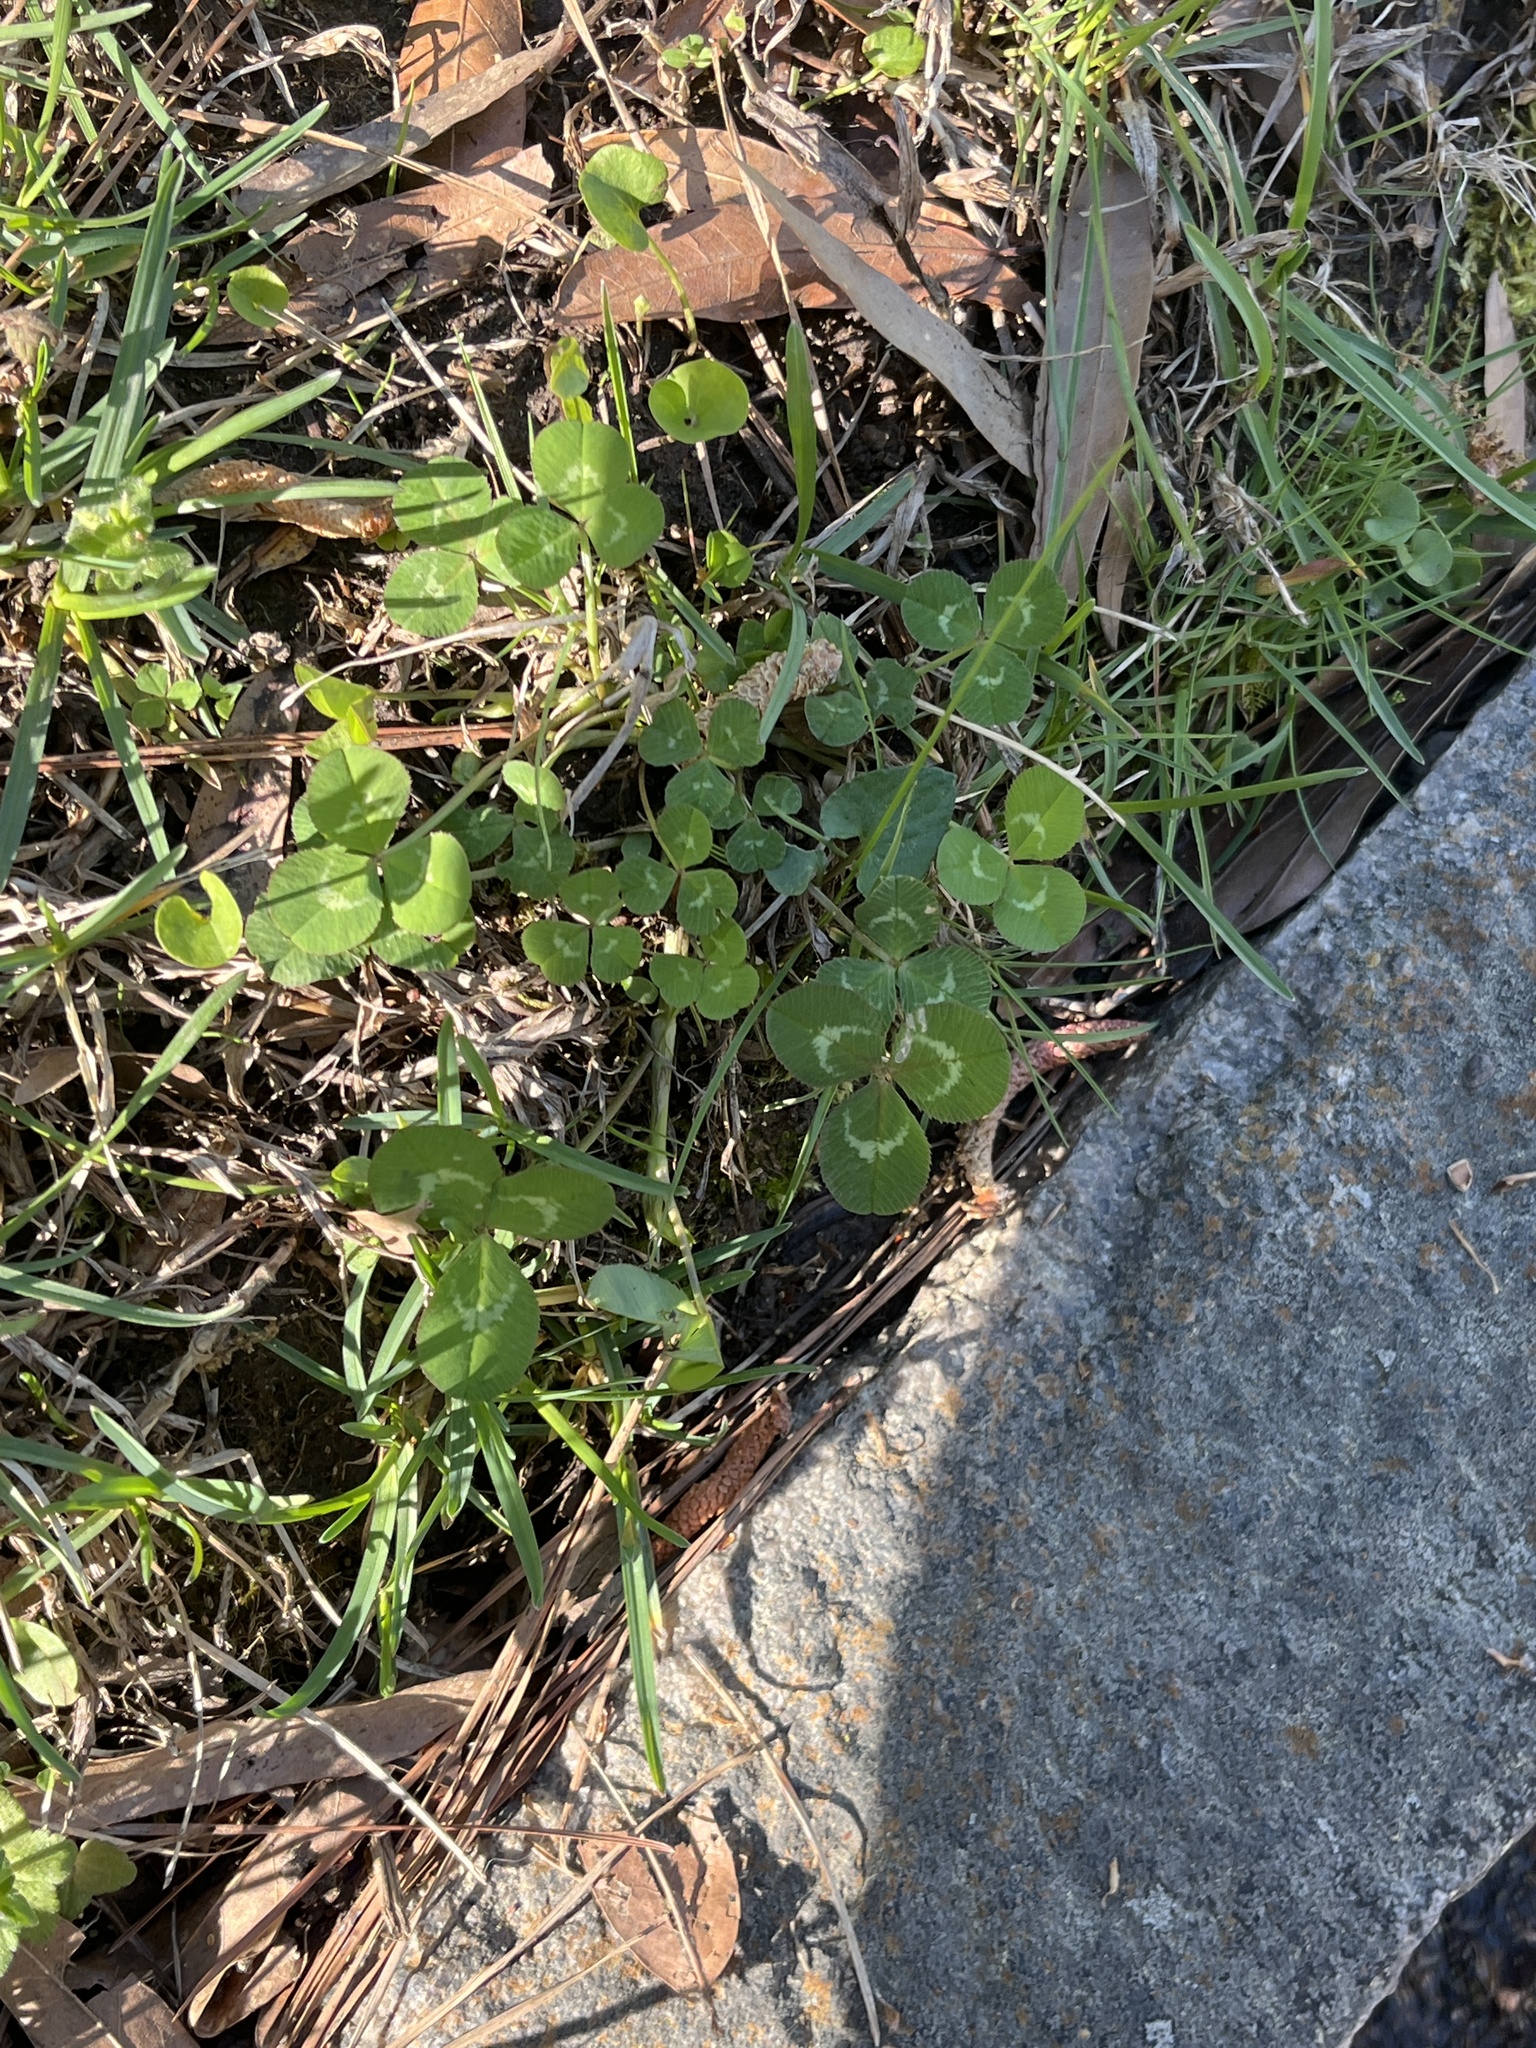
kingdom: Plantae
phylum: Tracheophyta
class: Magnoliopsida
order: Fabales
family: Fabaceae
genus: Trifolium
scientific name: Trifolium repens
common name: White clover
